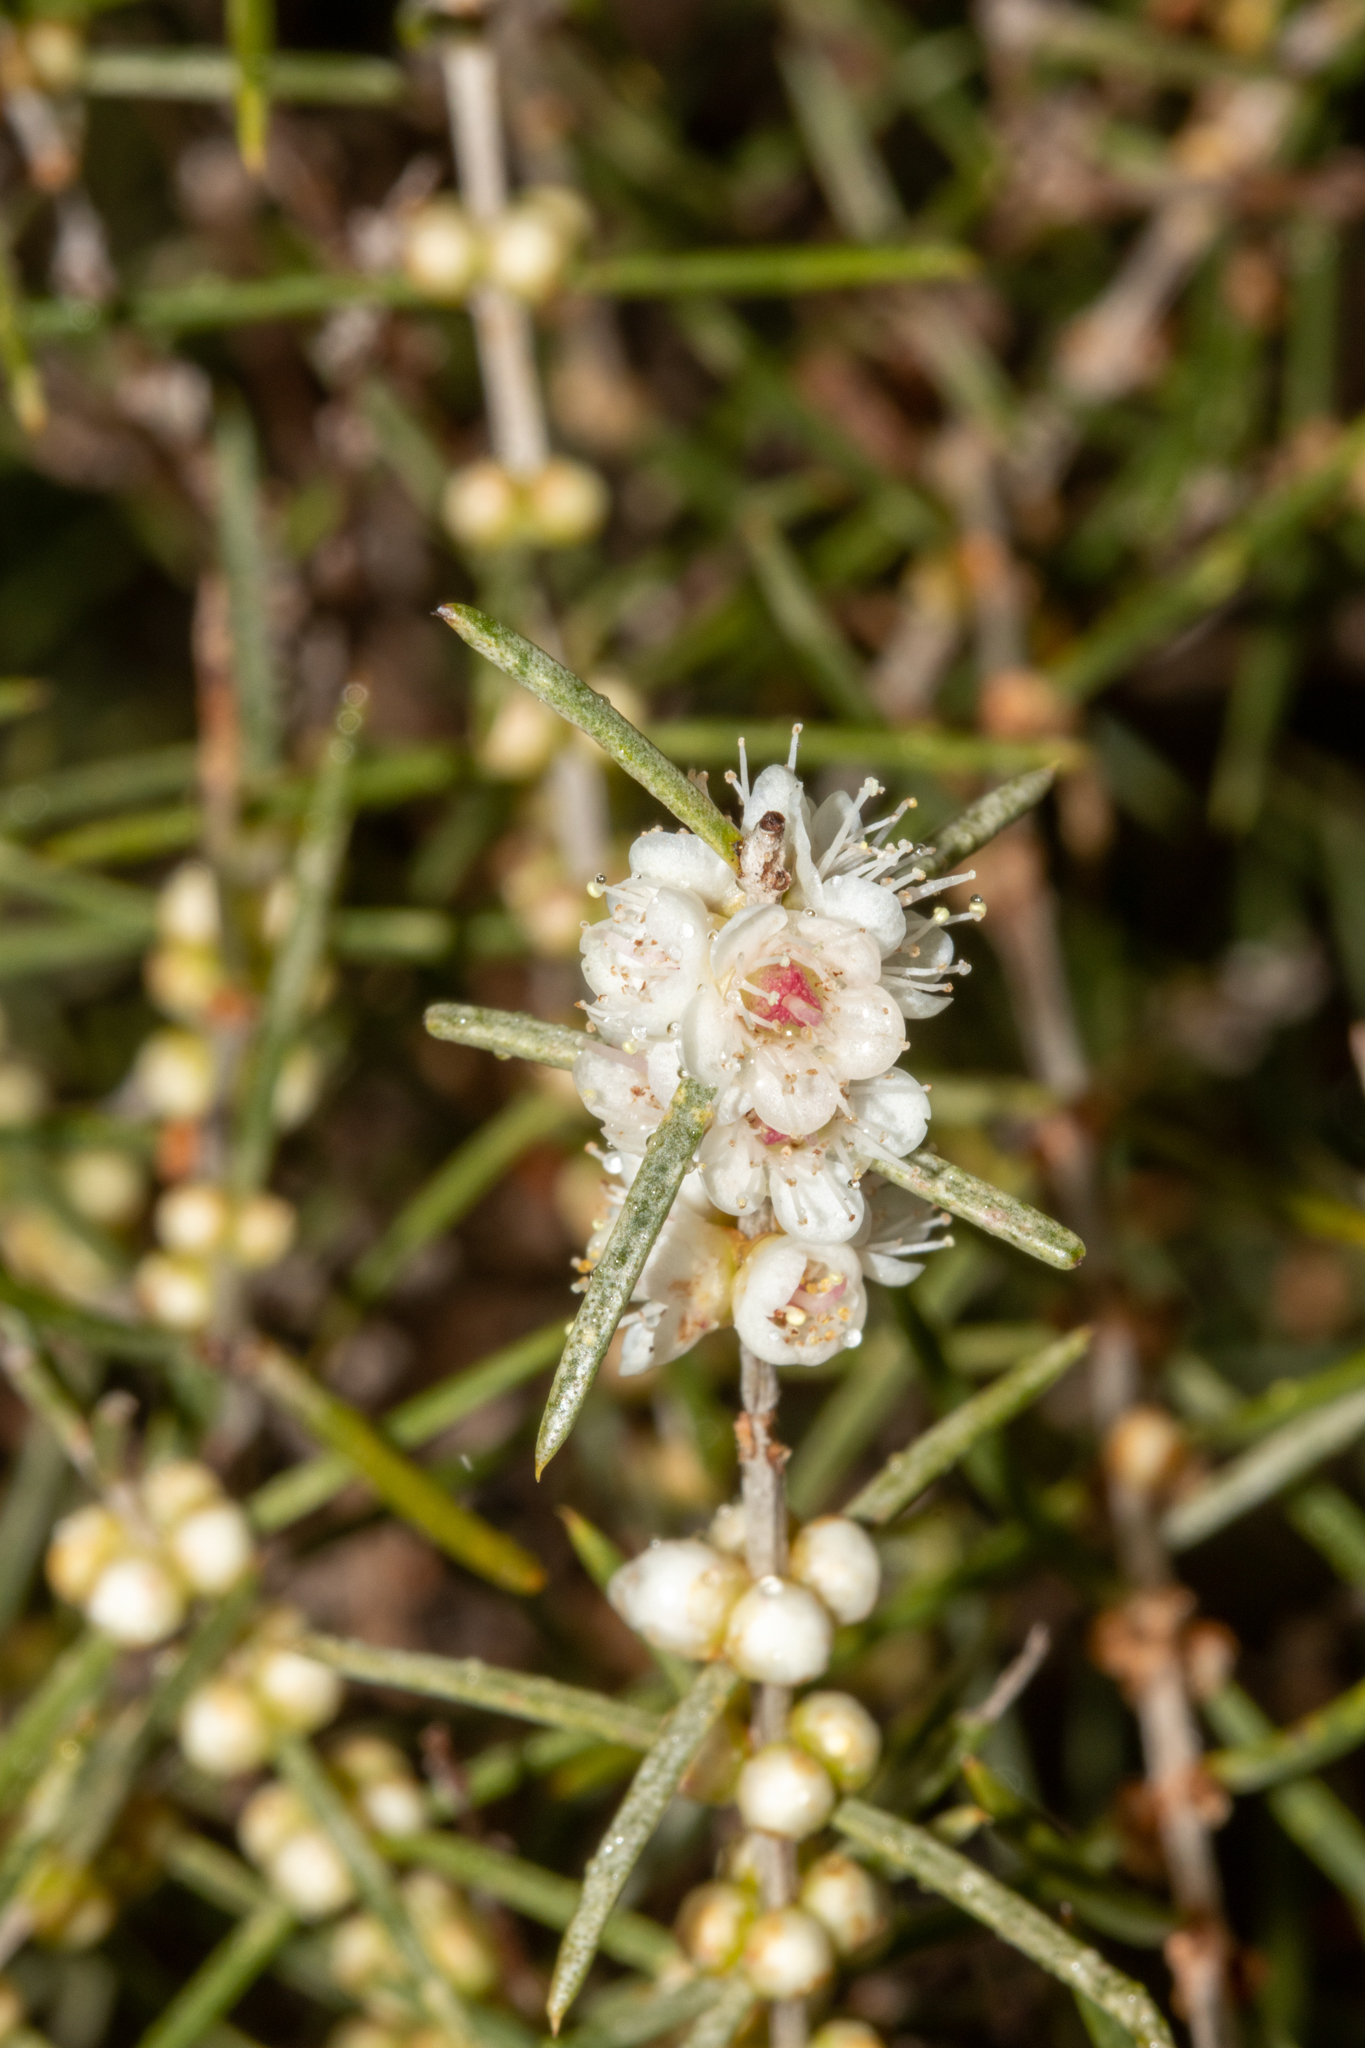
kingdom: Plantae
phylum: Tracheophyta
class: Magnoliopsida
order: Myrtales
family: Myrtaceae
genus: Hypocalymma
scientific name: Hypocalymma angustifolium
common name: White myrtle
